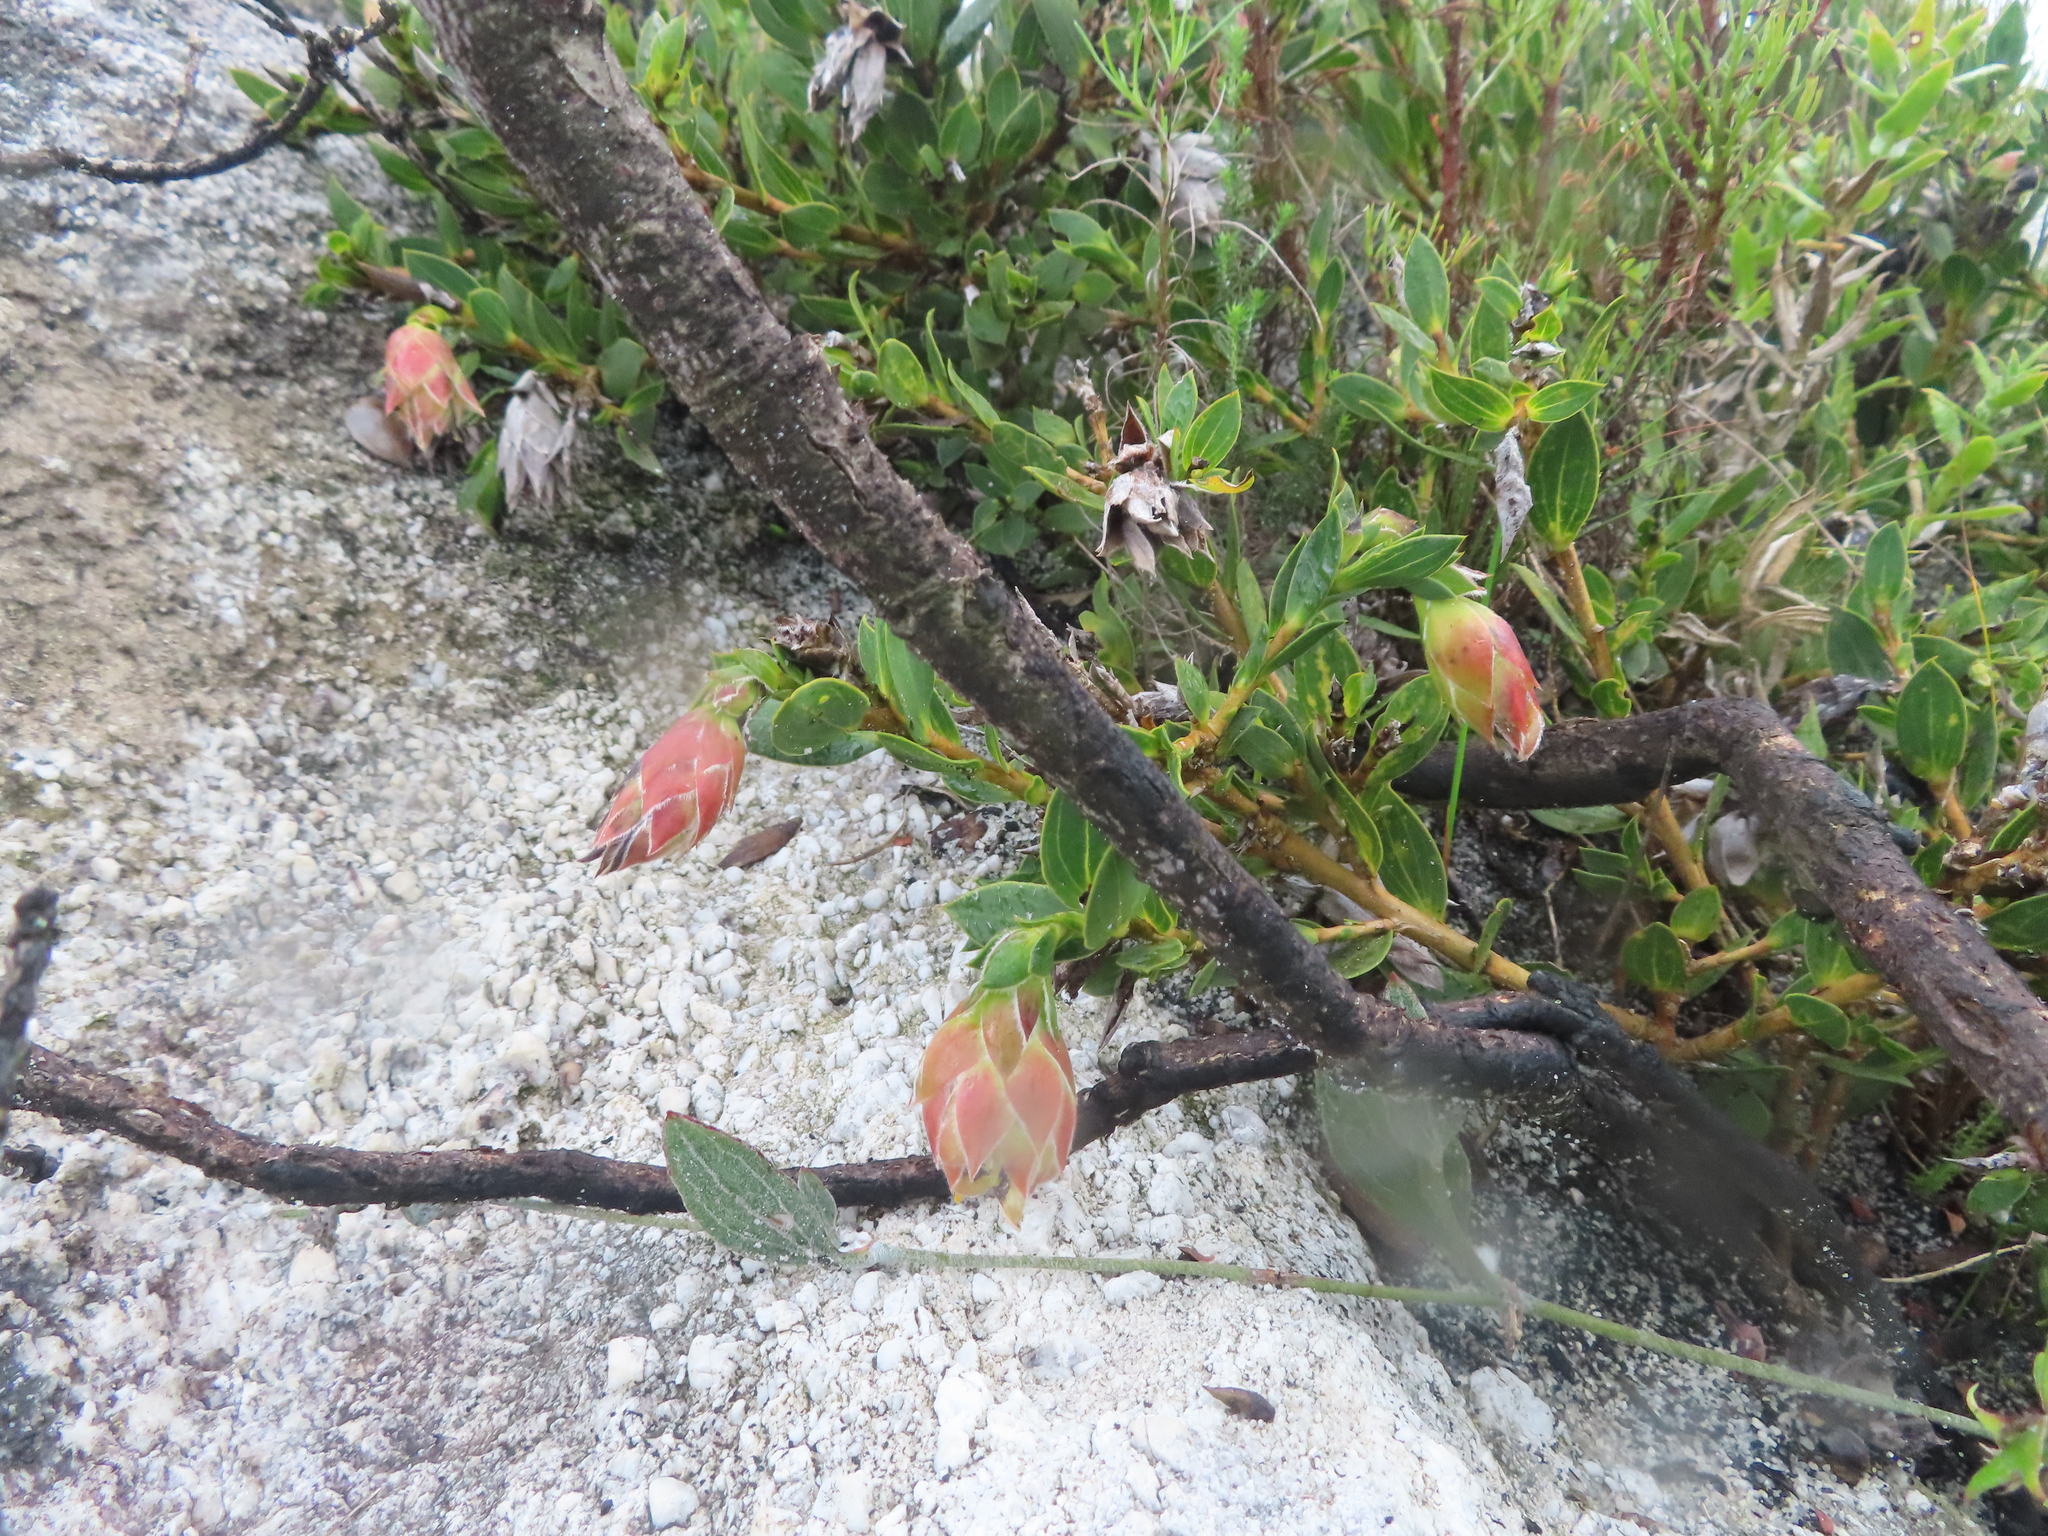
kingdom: Plantae
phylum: Tracheophyta
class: Magnoliopsida
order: Fabales
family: Fabaceae
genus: Liparia
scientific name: Liparia splendens
